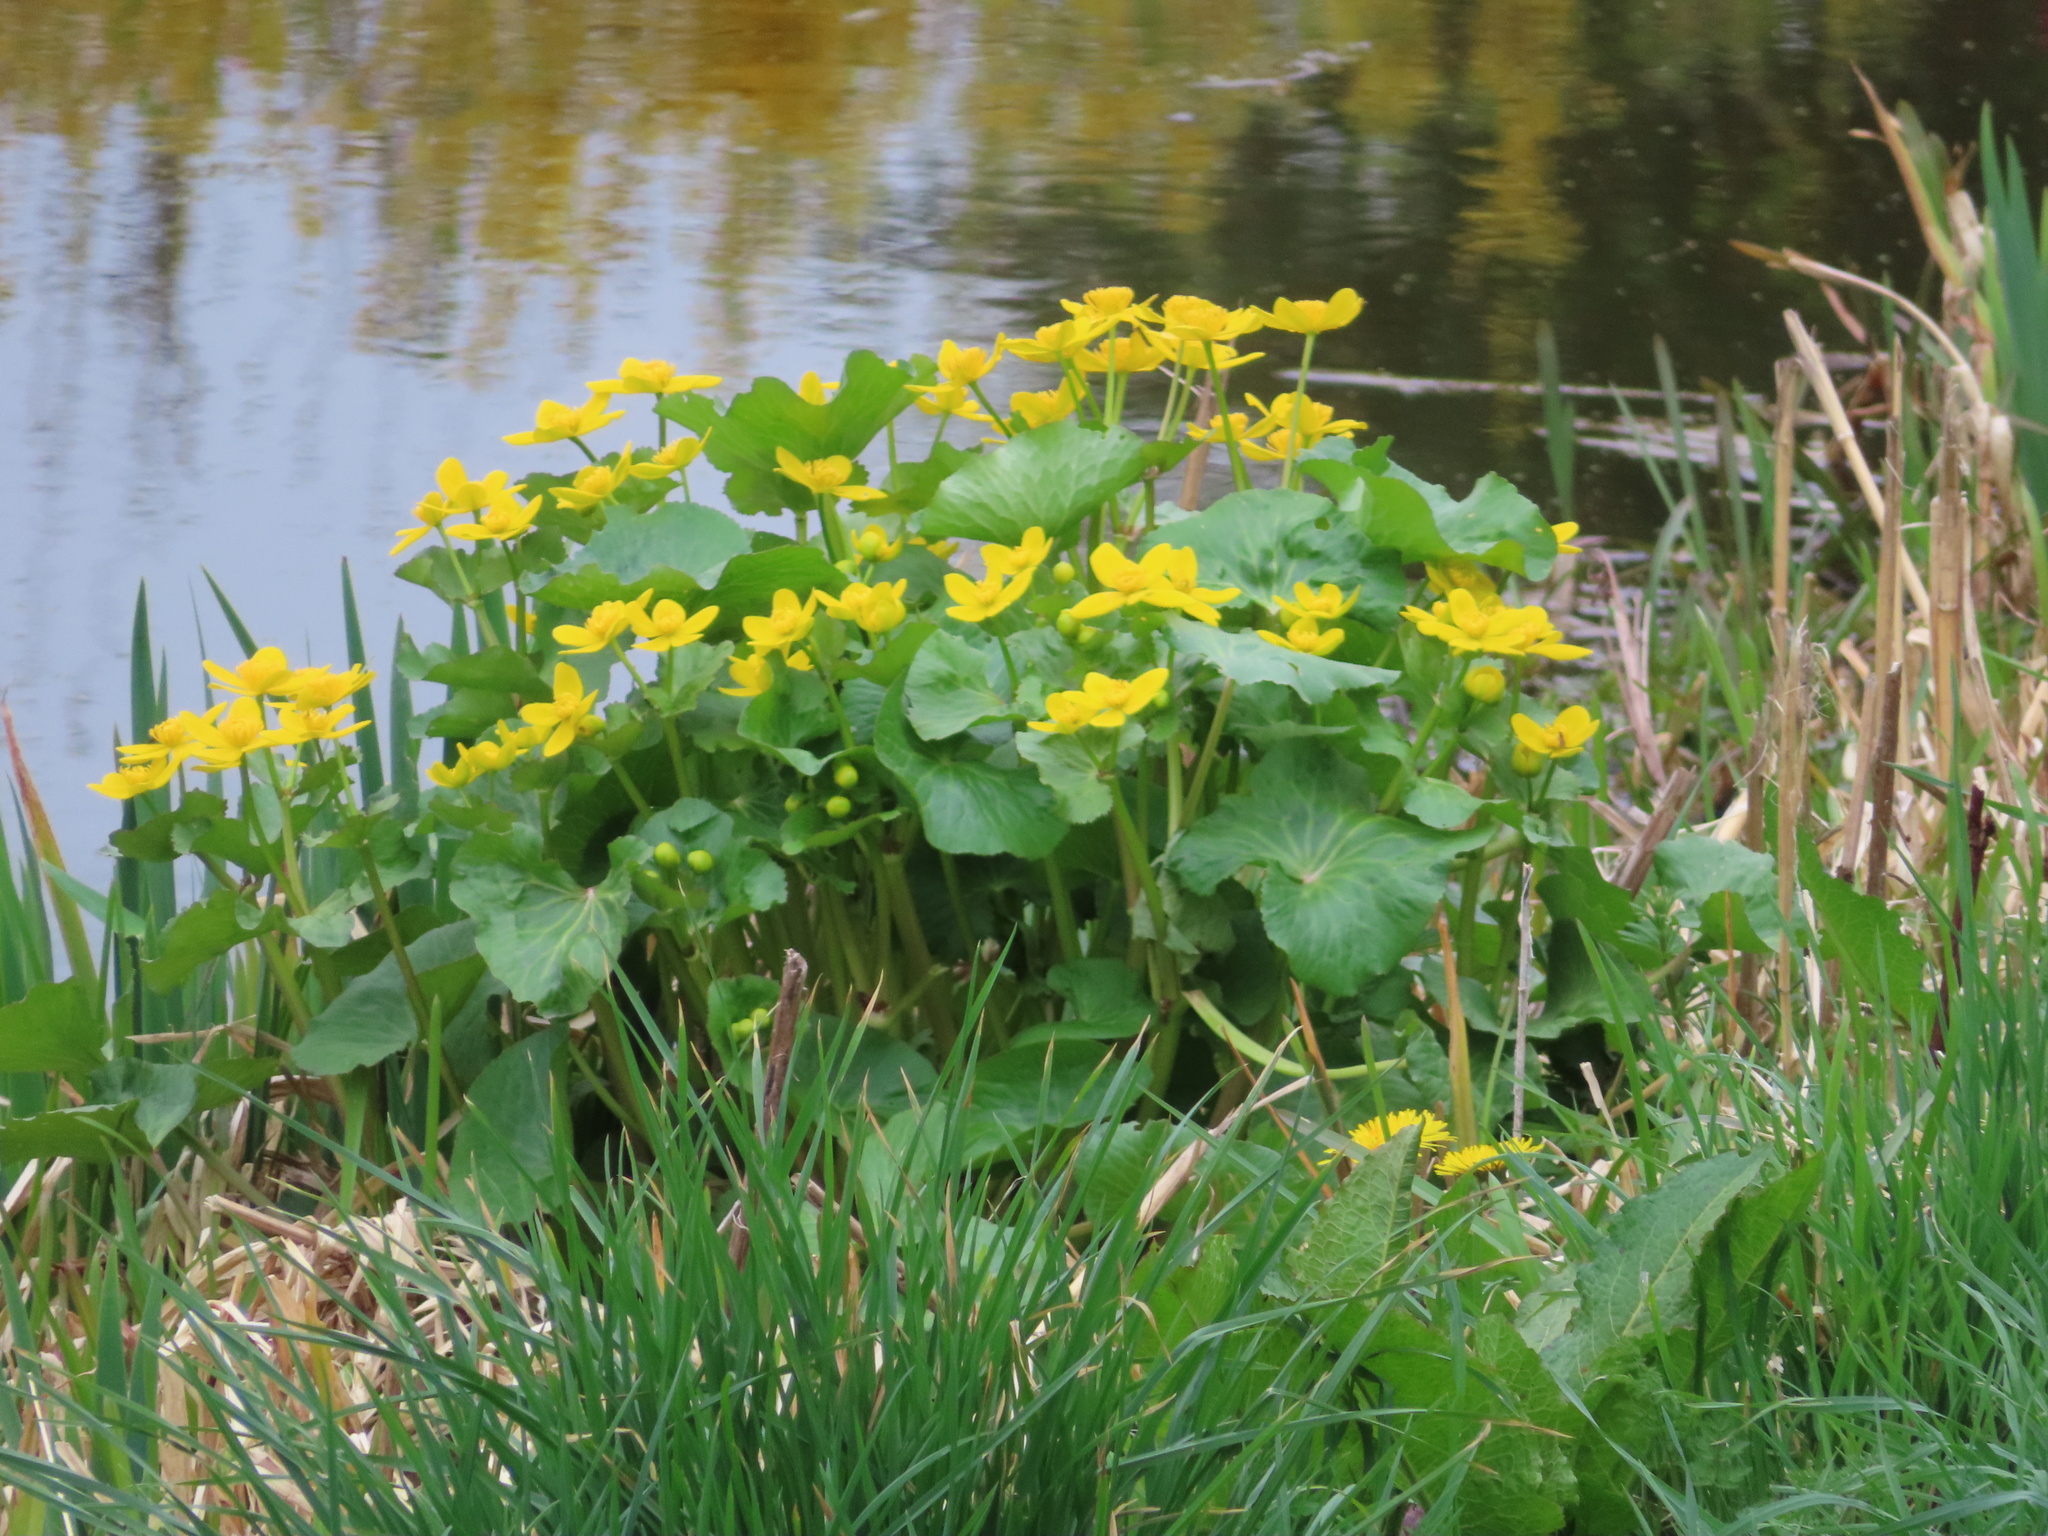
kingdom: Plantae
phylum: Tracheophyta
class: Magnoliopsida
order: Ranunculales
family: Ranunculaceae
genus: Caltha
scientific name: Caltha palustris
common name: Marsh marigold
